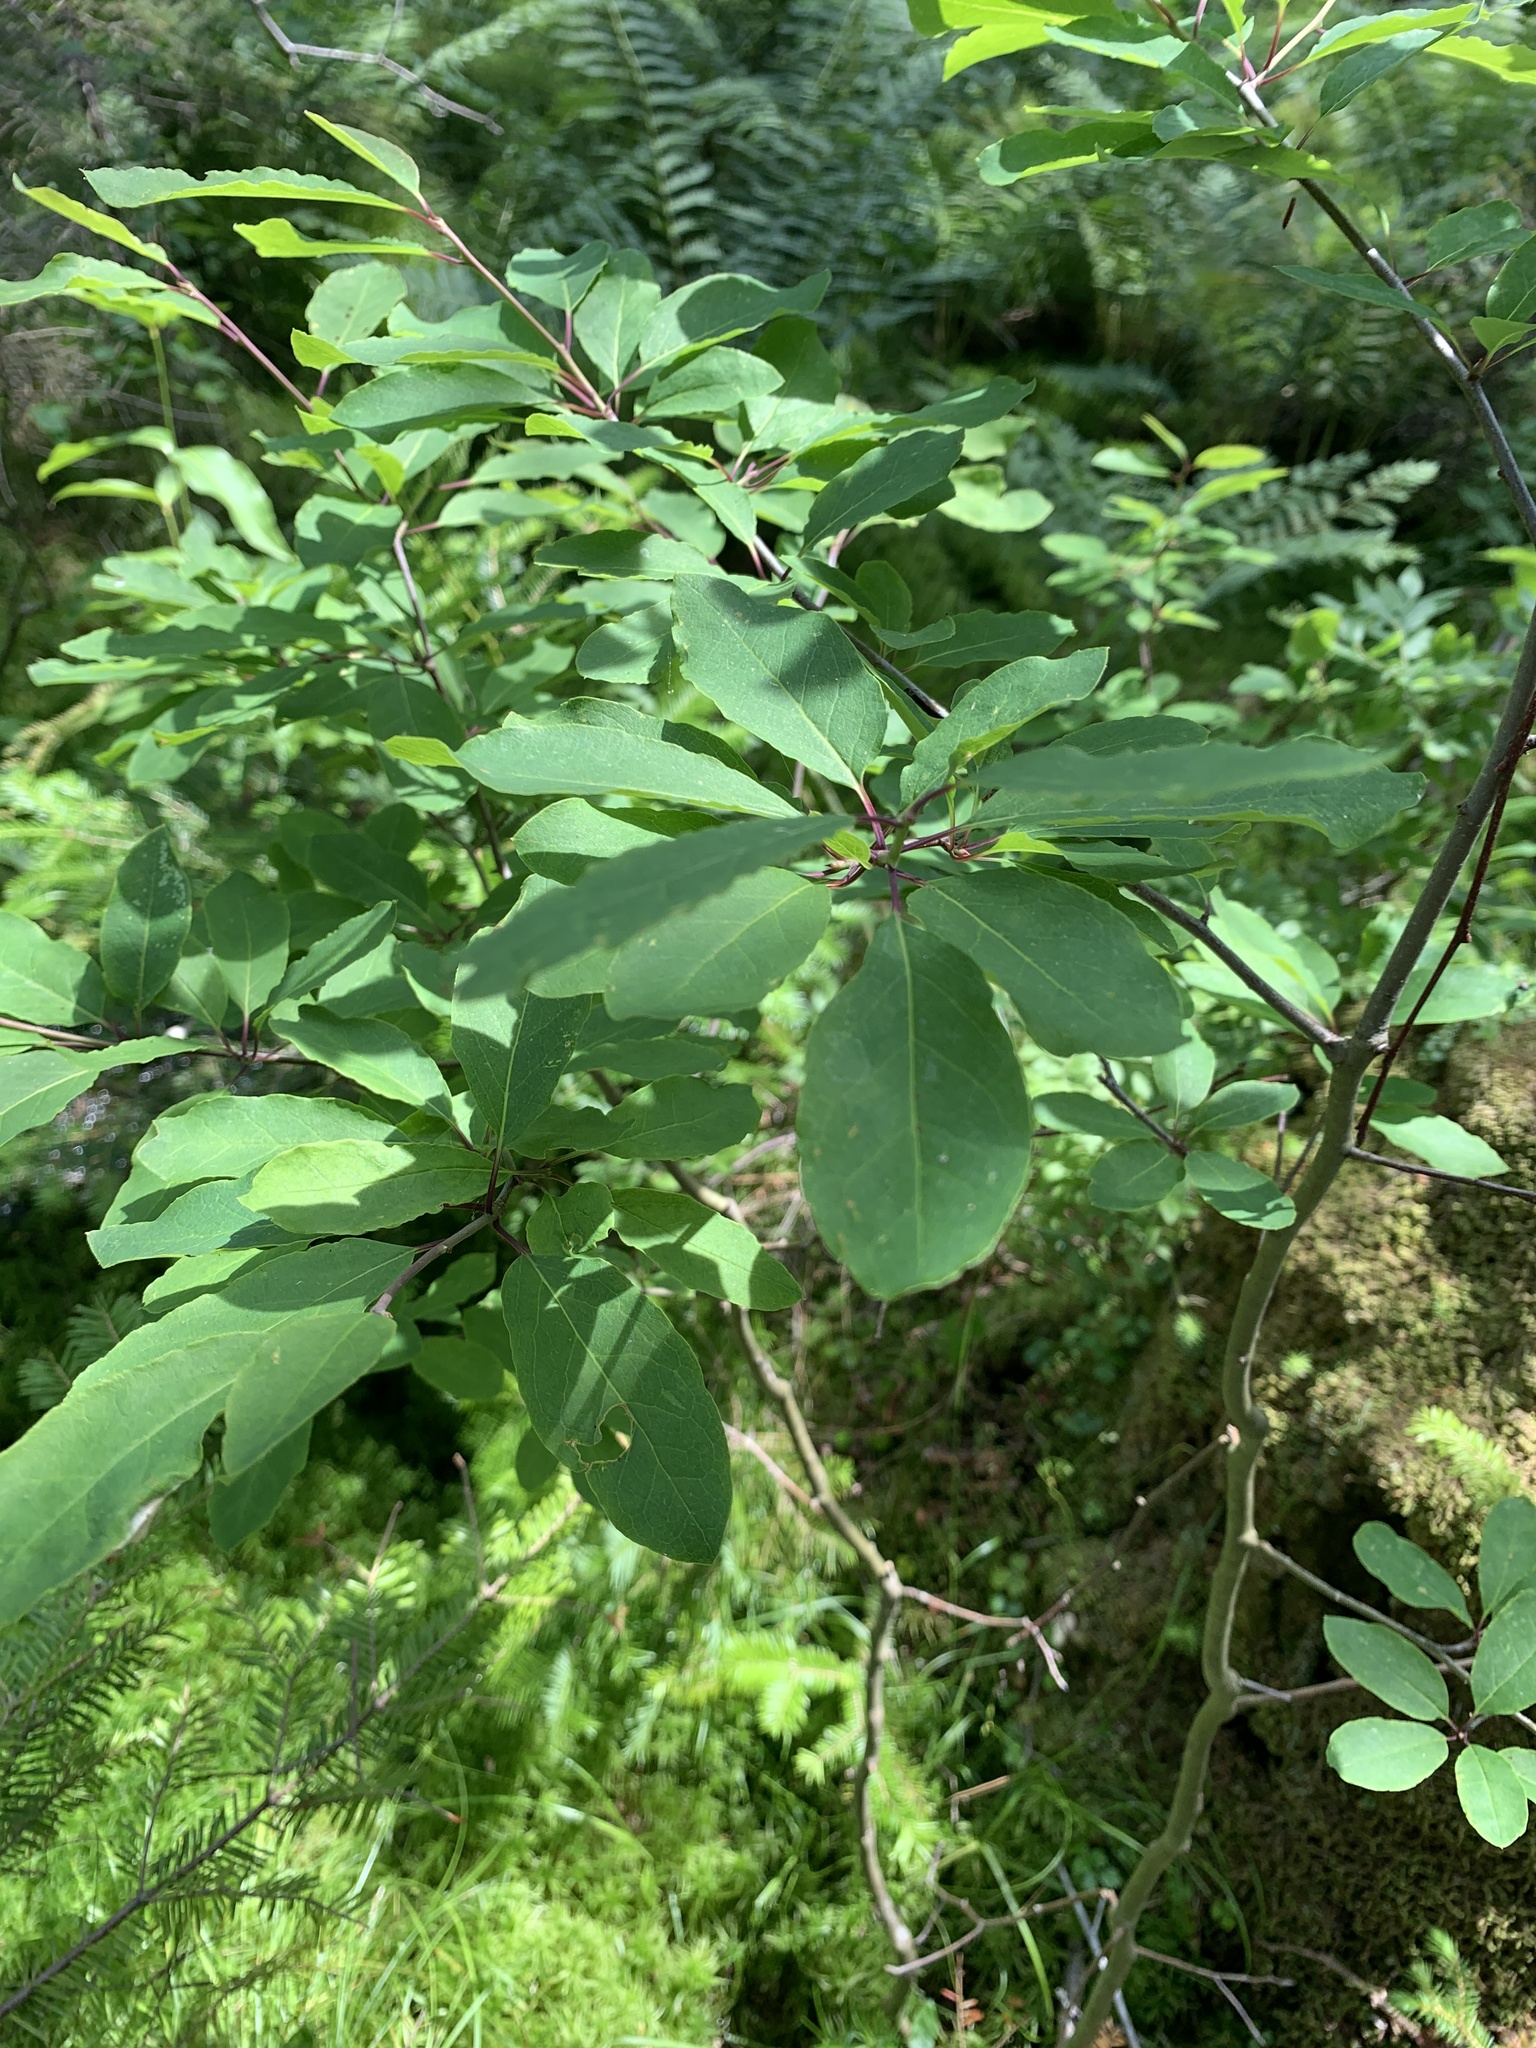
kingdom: Plantae
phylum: Tracheophyta
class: Magnoliopsida
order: Aquifoliales
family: Aquifoliaceae
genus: Ilex
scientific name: Ilex mucronata
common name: Catberry
